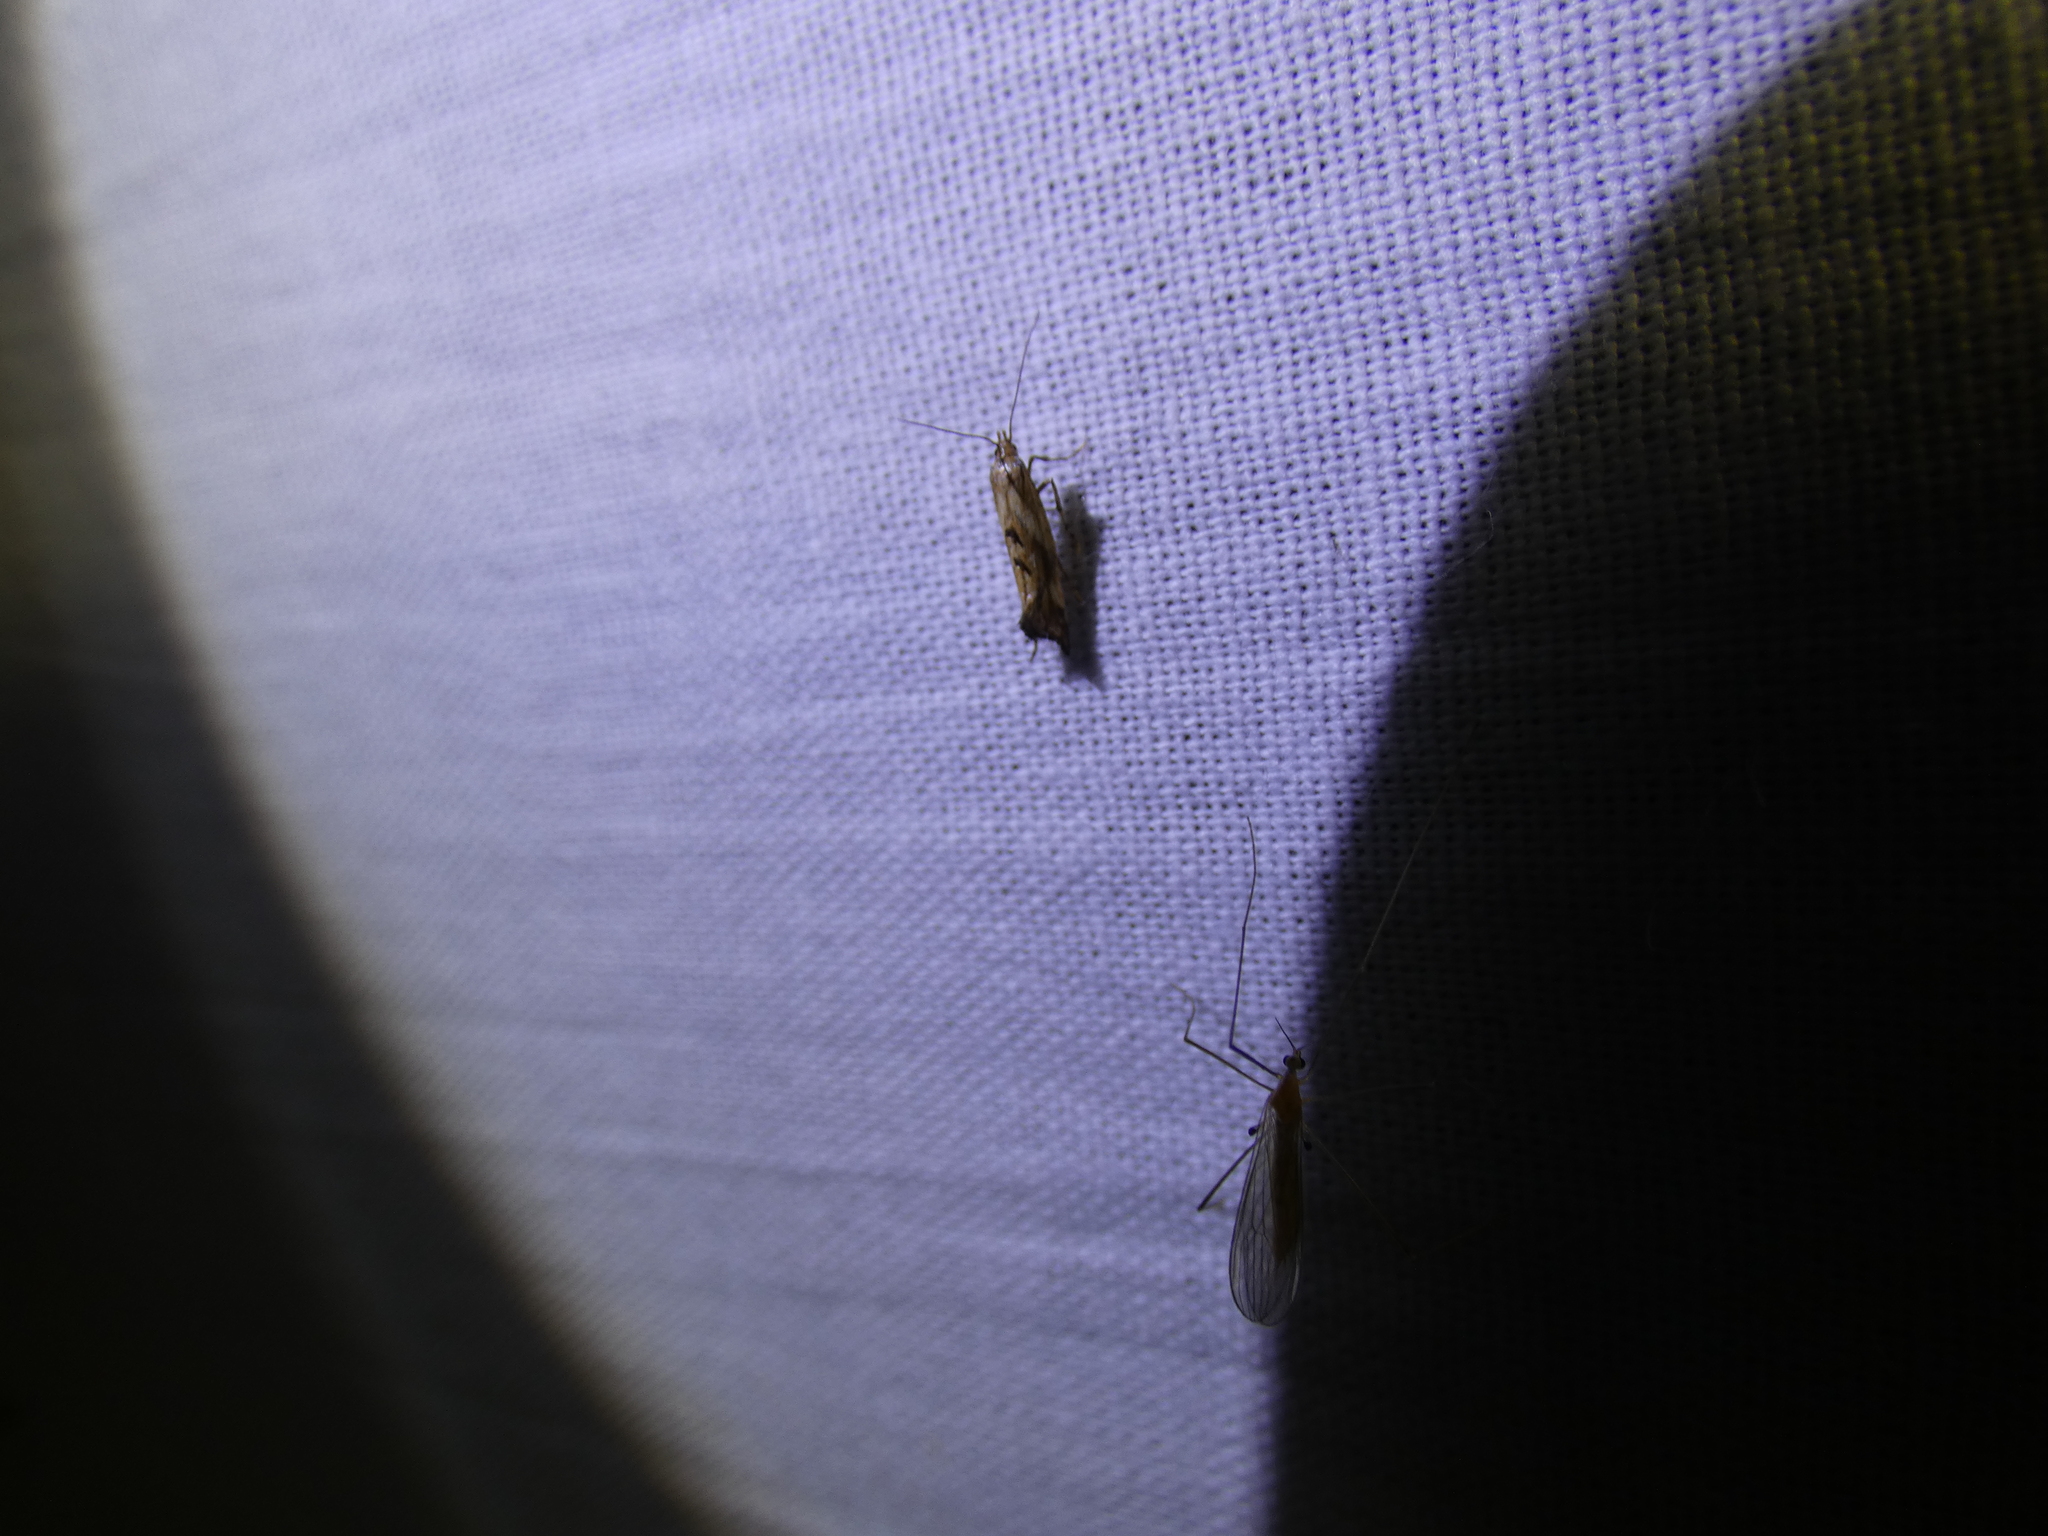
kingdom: Animalia
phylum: Arthropoda
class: Insecta
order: Lepidoptera
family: Epermeniidae
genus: Epermenia
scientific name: Epermenia illigerella
